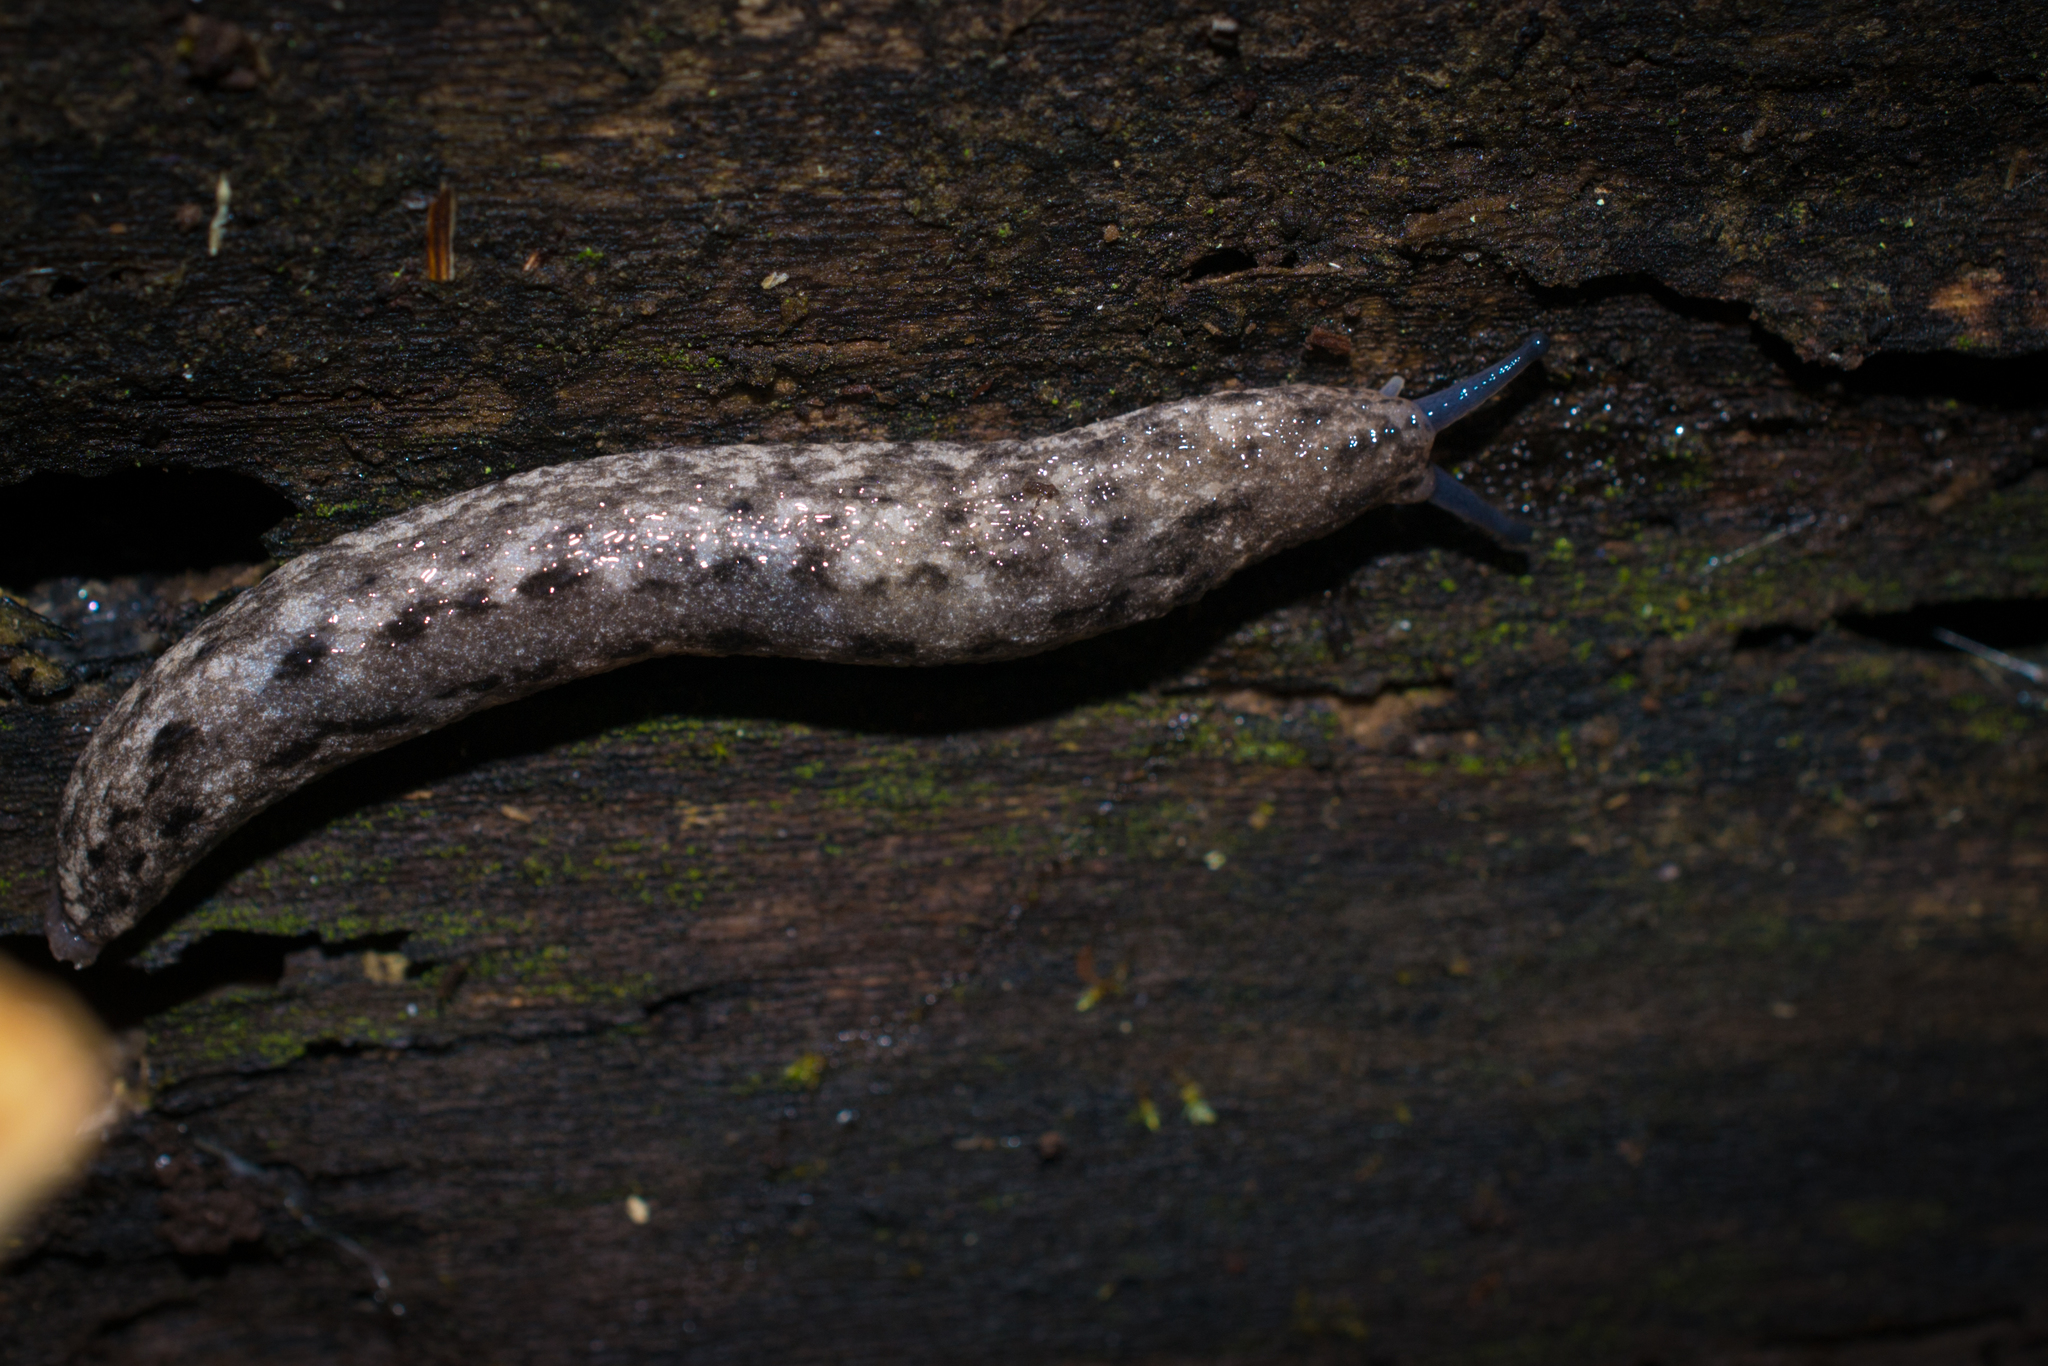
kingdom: Animalia
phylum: Mollusca
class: Gastropoda
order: Stylommatophora
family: Philomycidae
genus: Philomycus
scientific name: Philomycus carolinianus
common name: Carolina mantleslug
